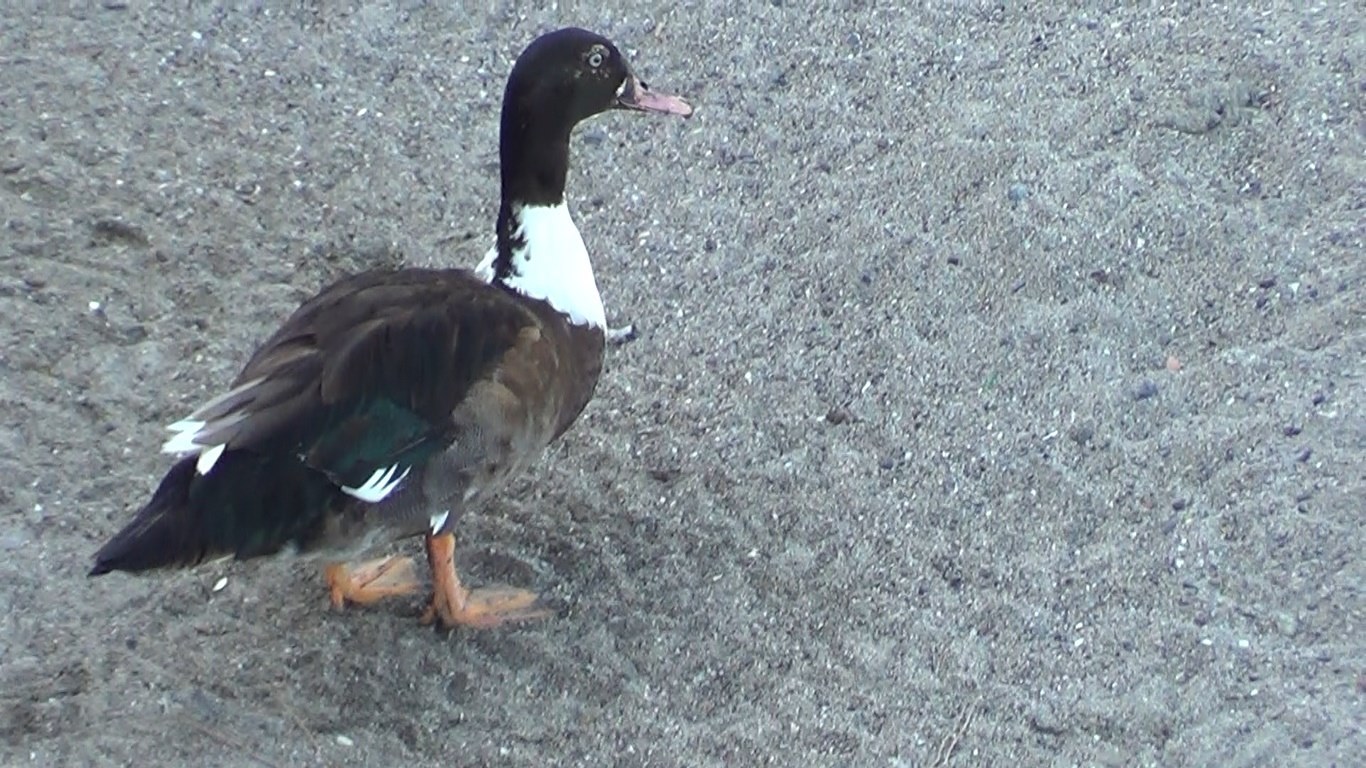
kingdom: Animalia
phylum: Chordata
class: Aves
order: Anseriformes
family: Anatidae
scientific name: Anatidae
